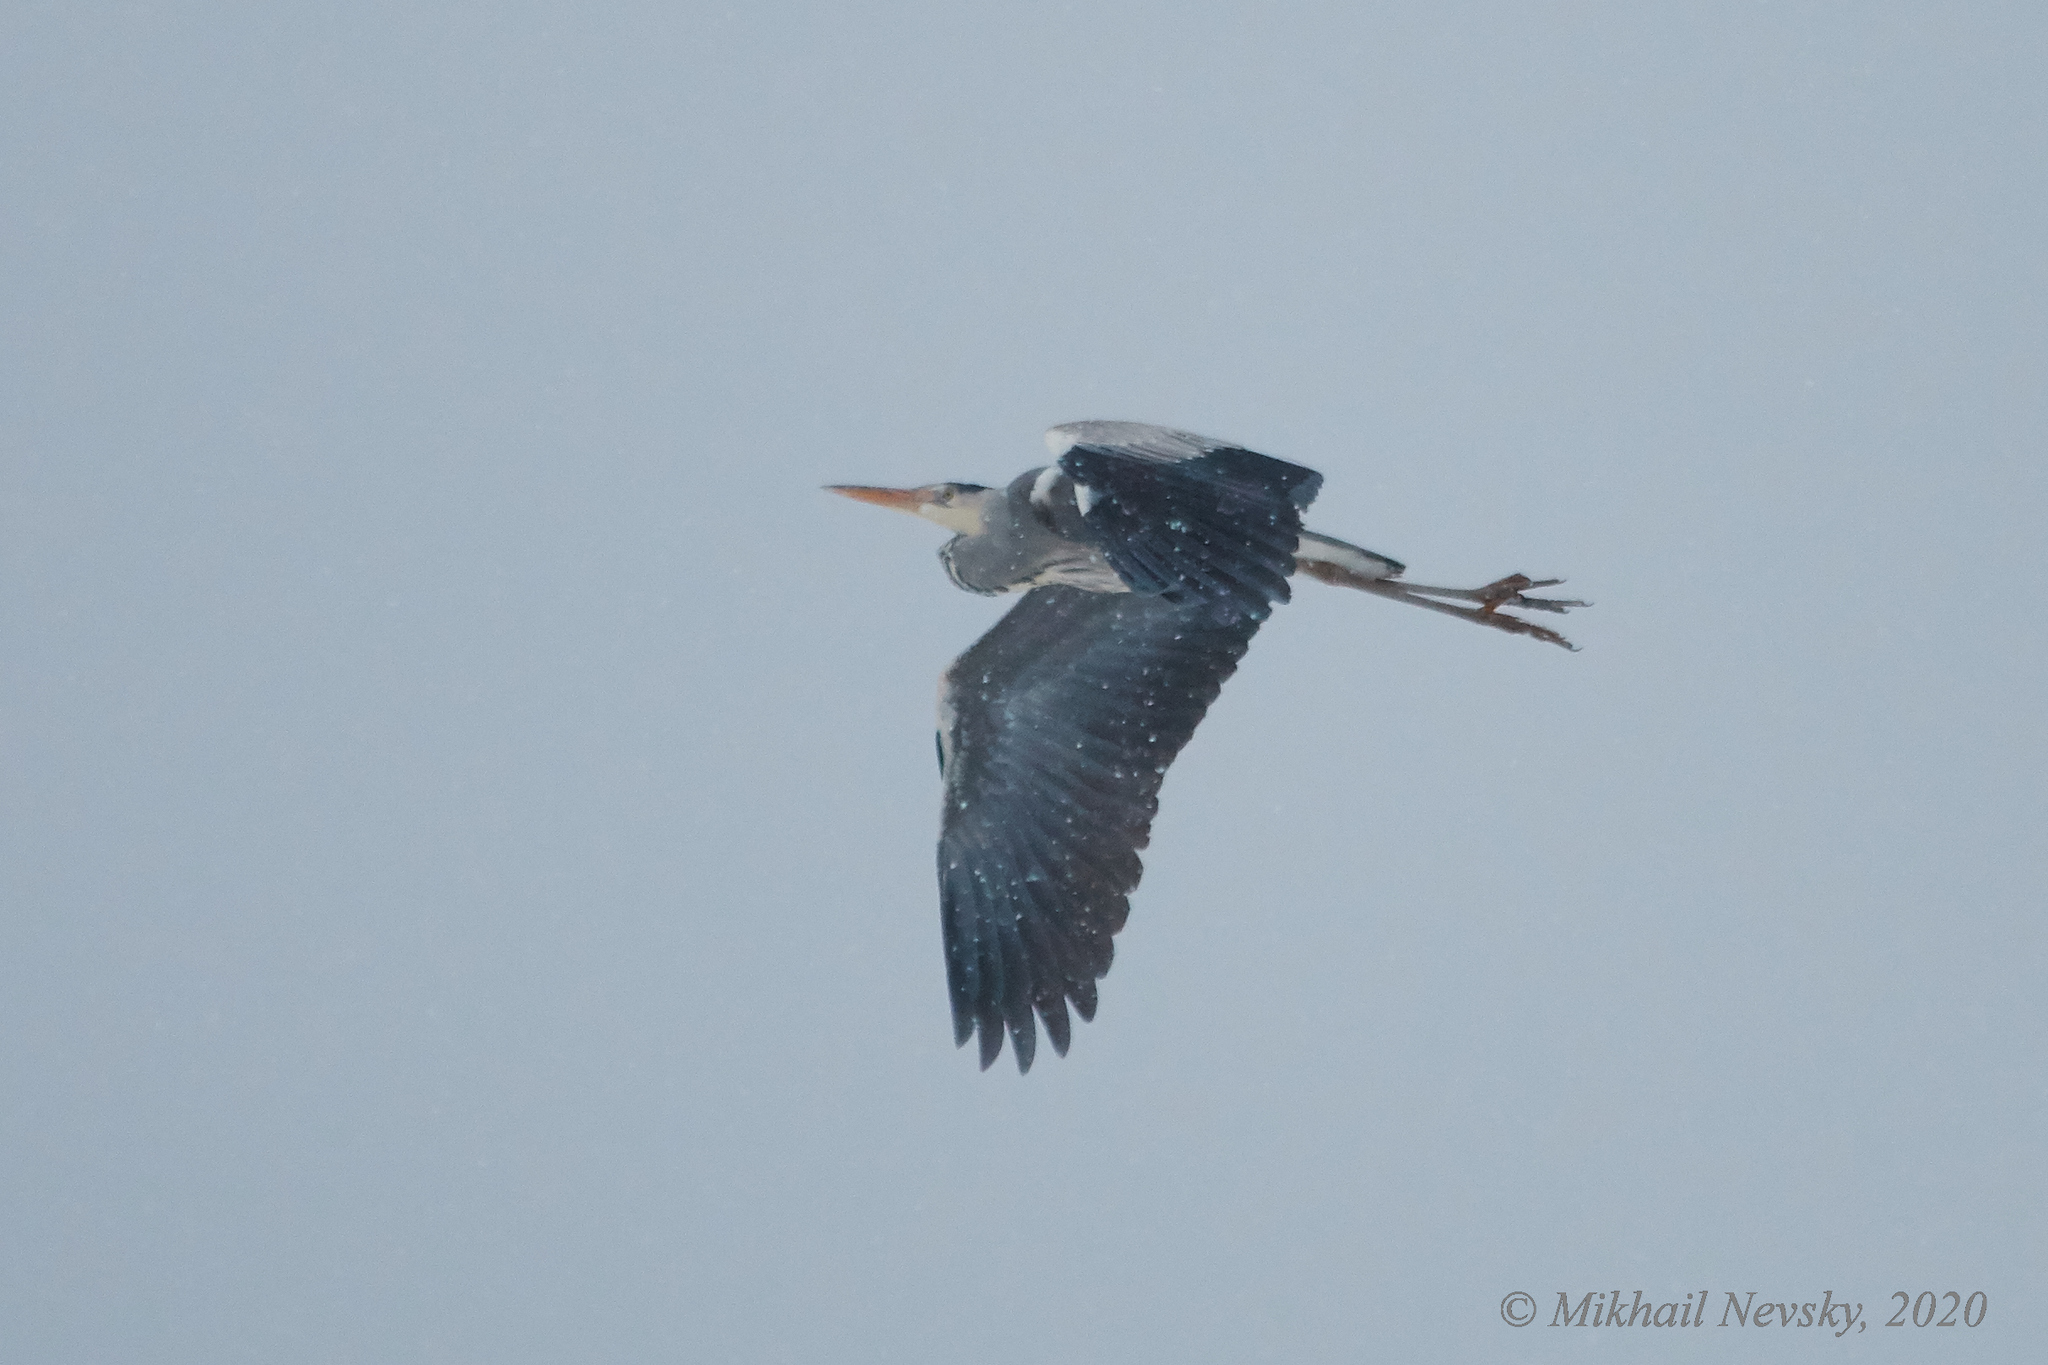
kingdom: Animalia
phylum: Chordata
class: Aves
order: Pelecaniformes
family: Ardeidae
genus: Ardea
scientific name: Ardea cinerea
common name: Grey heron
